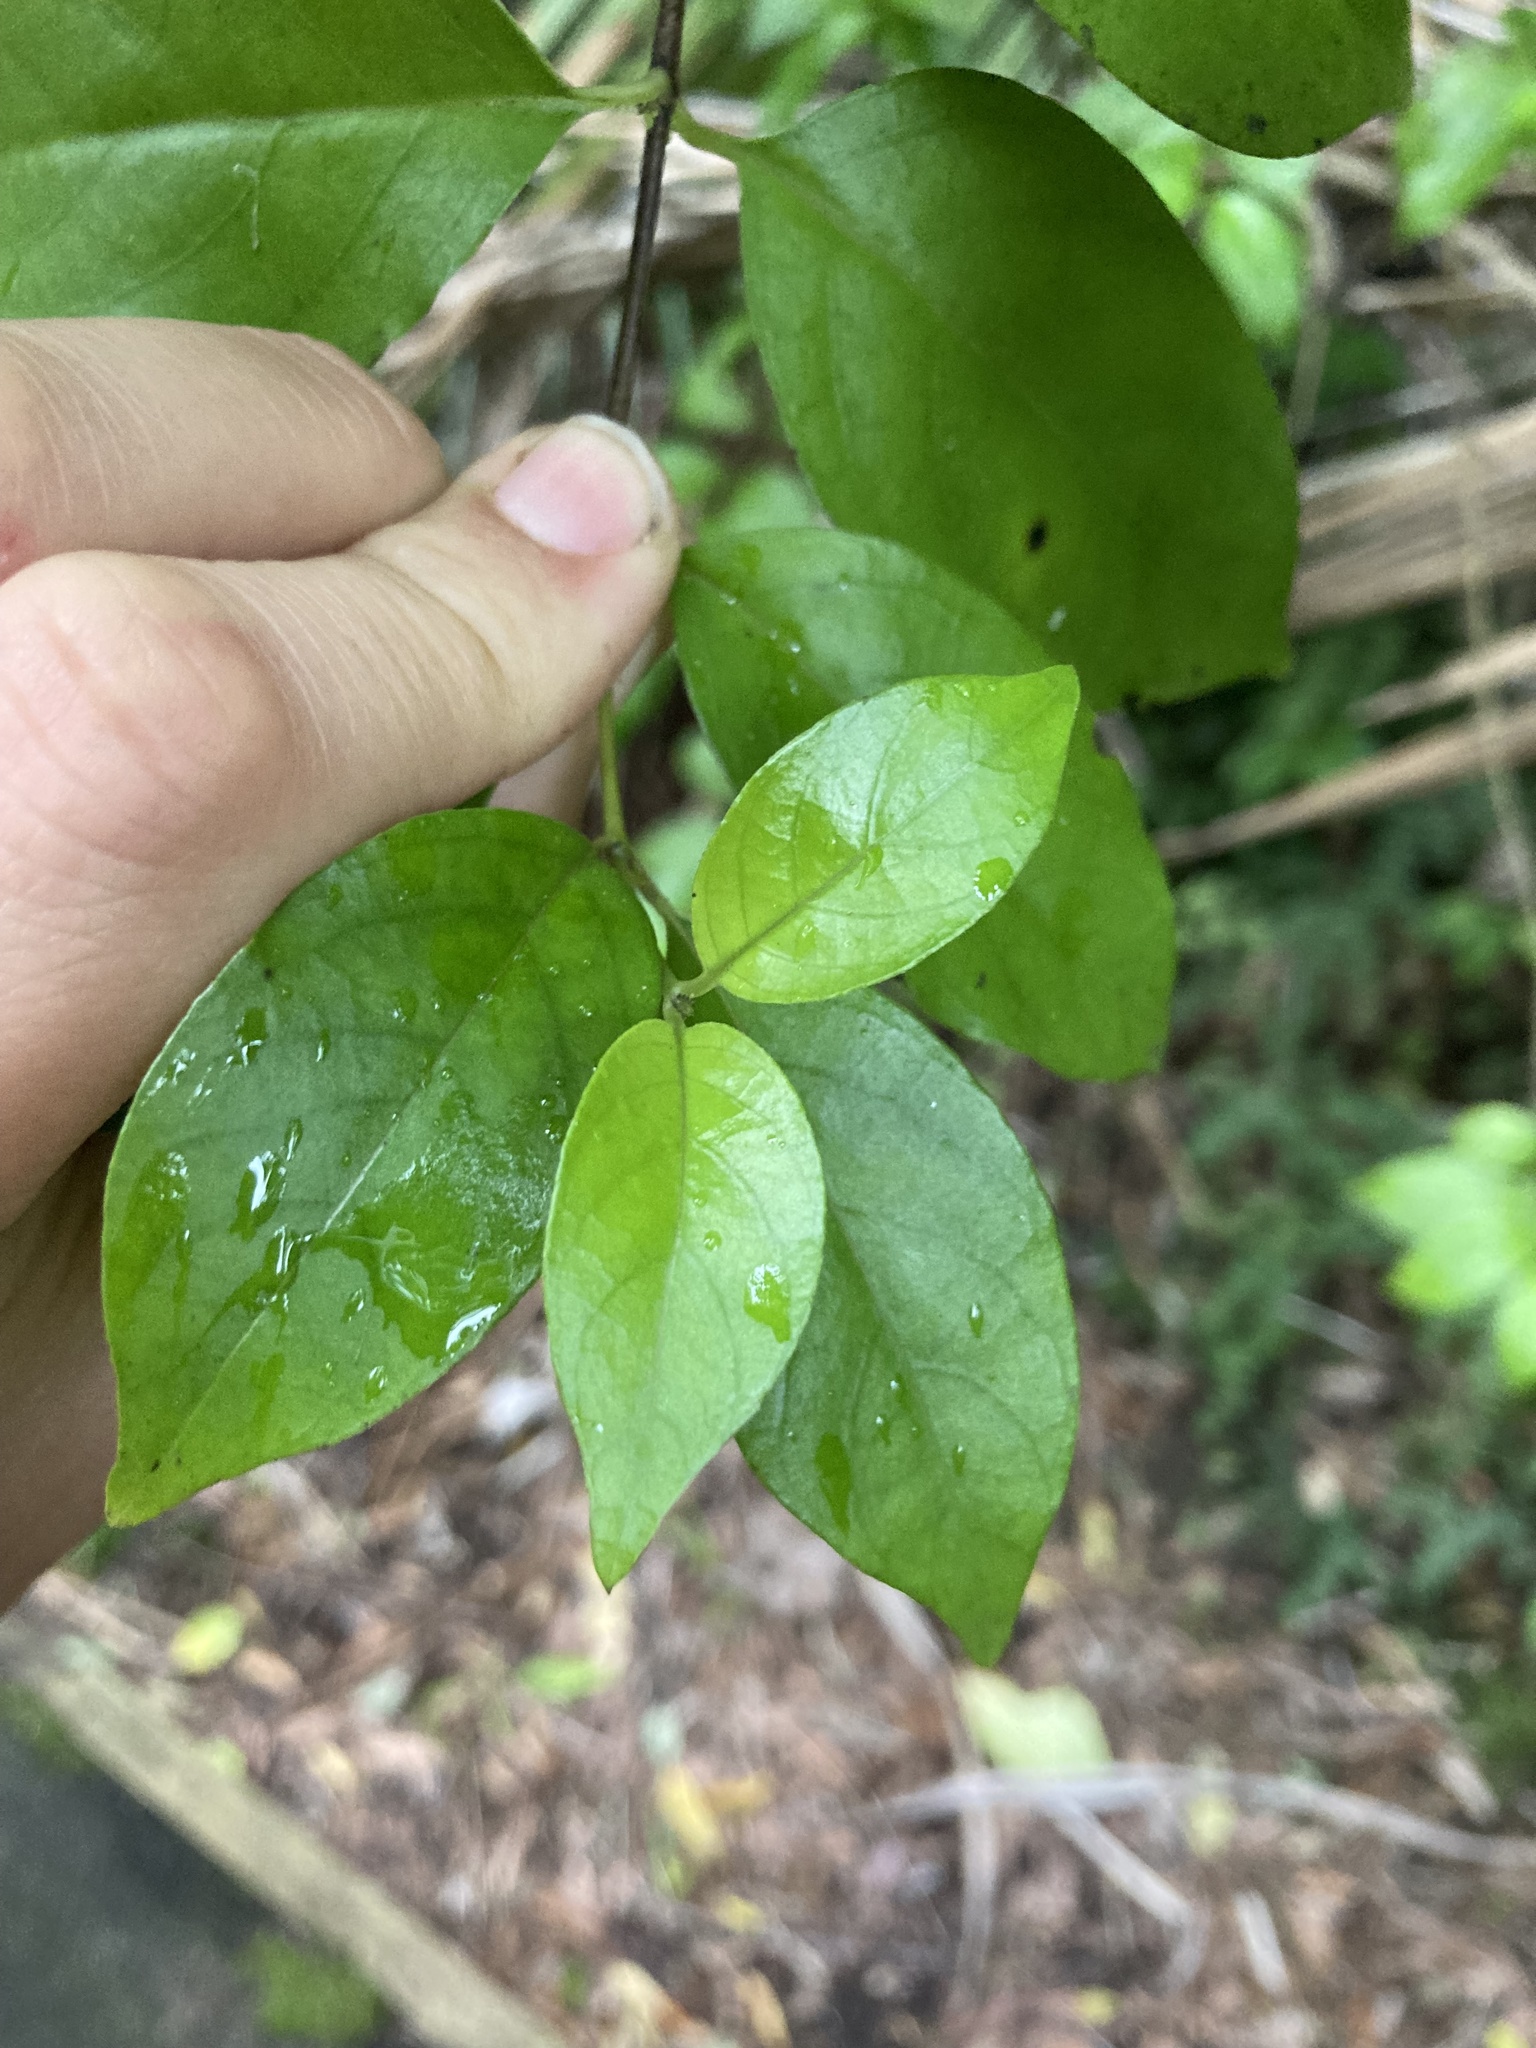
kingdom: Plantae
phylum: Tracheophyta
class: Magnoliopsida
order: Gentianales
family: Loganiaceae
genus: Geniostoma
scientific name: Geniostoma ligustrifolium
